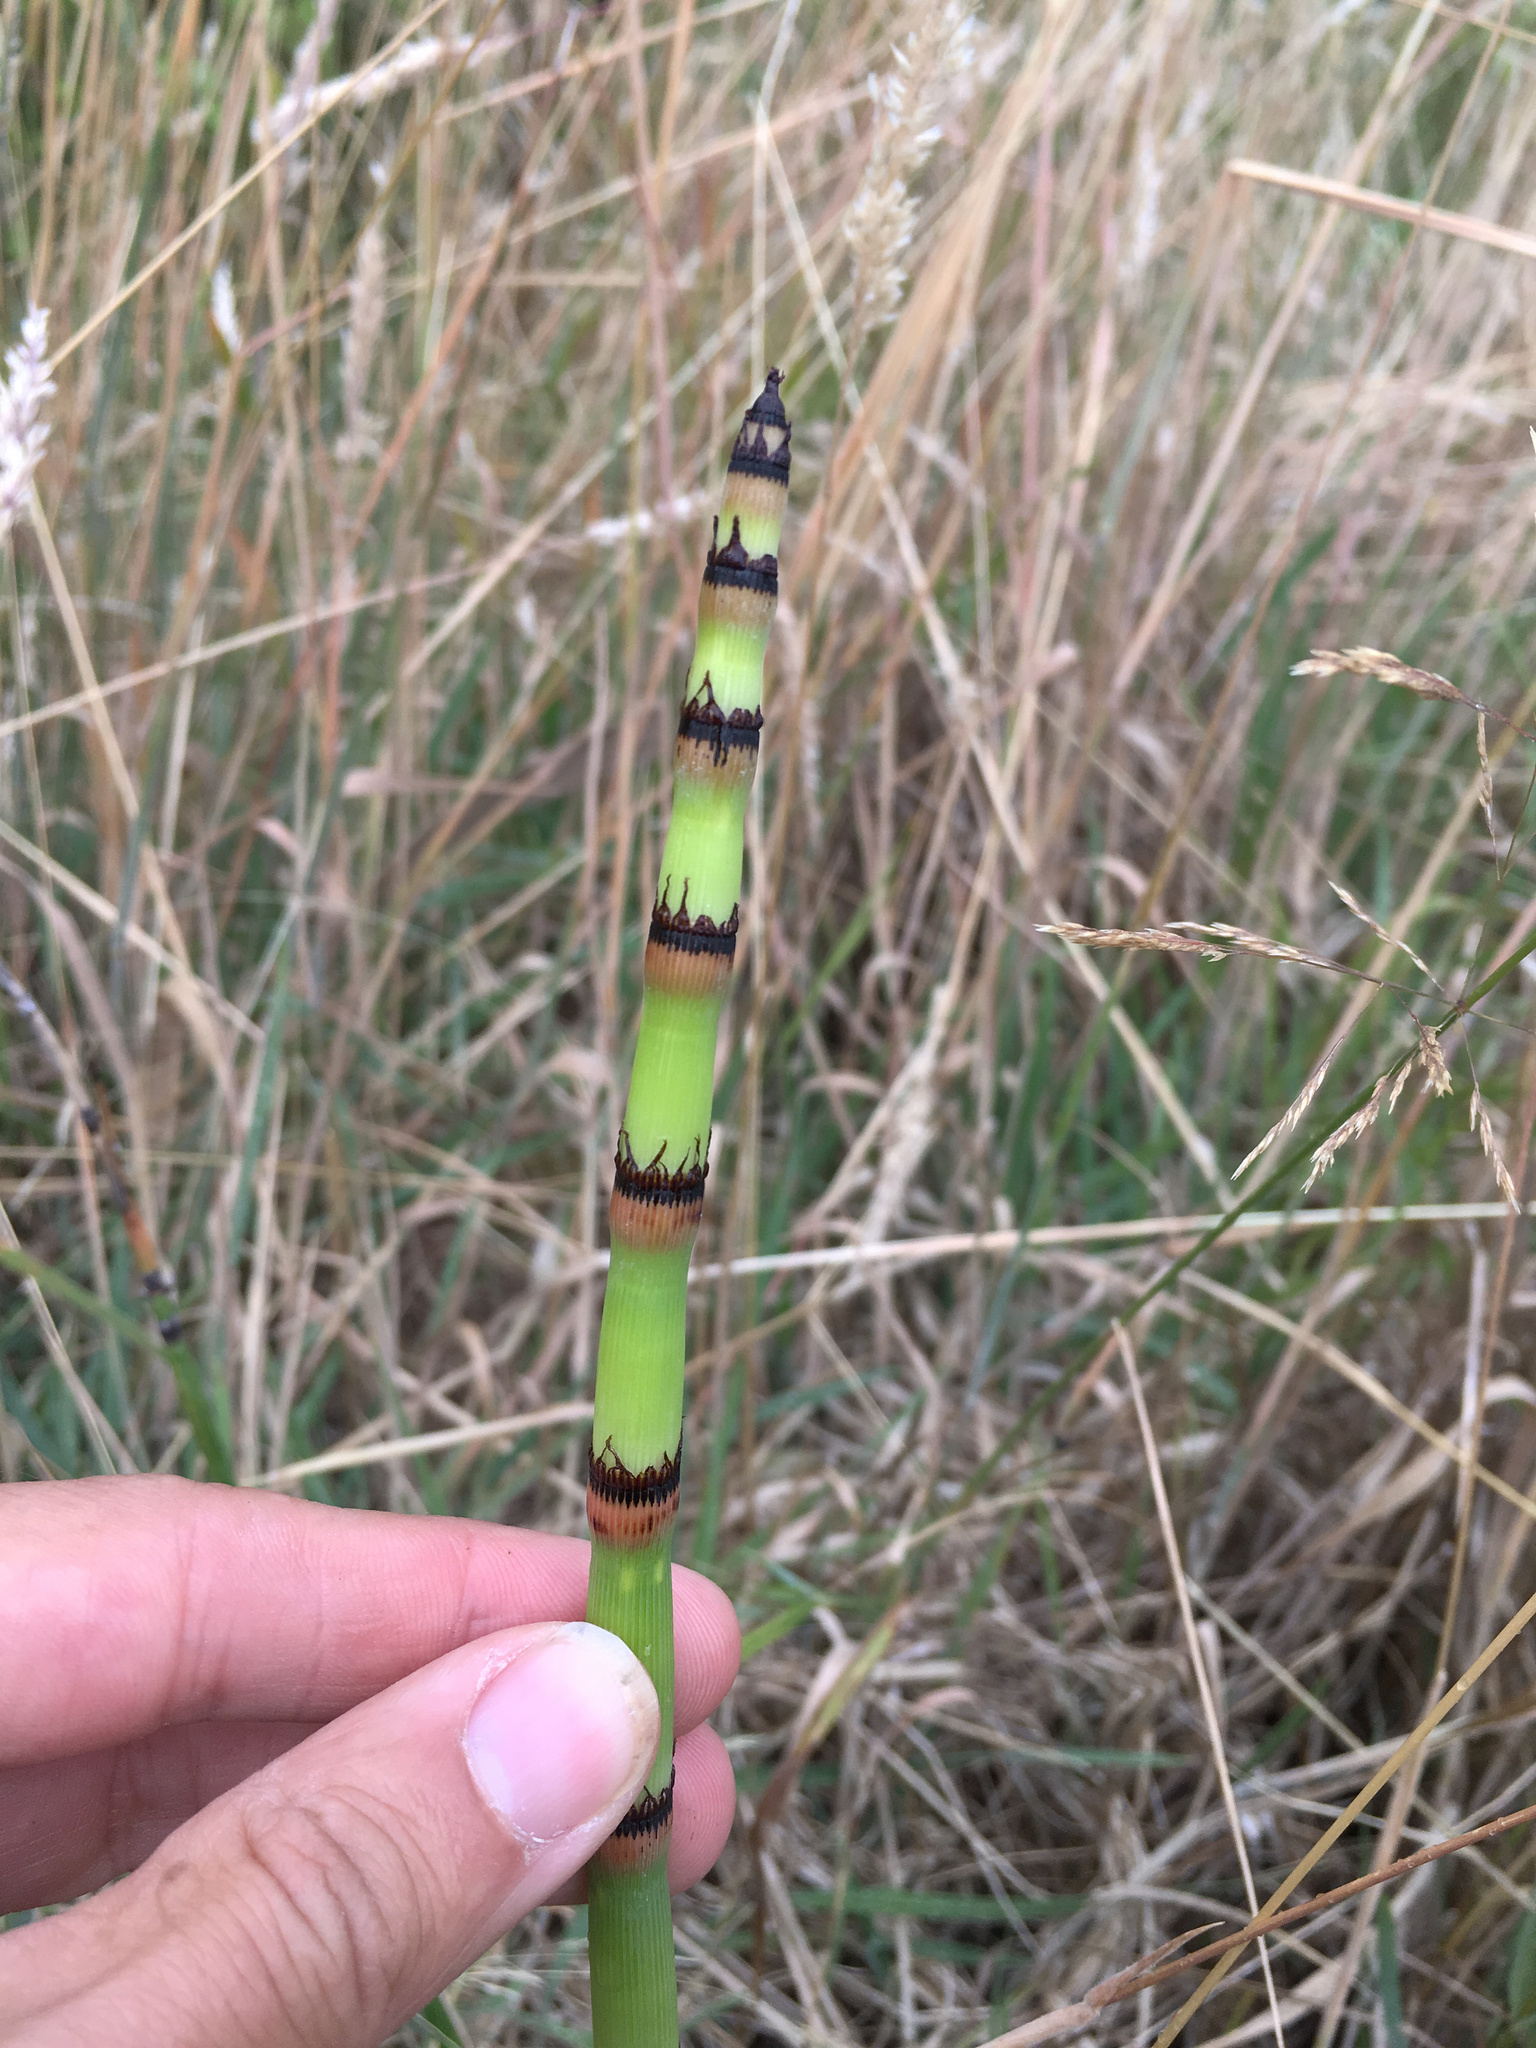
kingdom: Plantae
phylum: Tracheophyta
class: Polypodiopsida
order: Equisetales
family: Equisetaceae
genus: Equisetum
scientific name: Equisetum hyemale
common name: Rough horsetail
